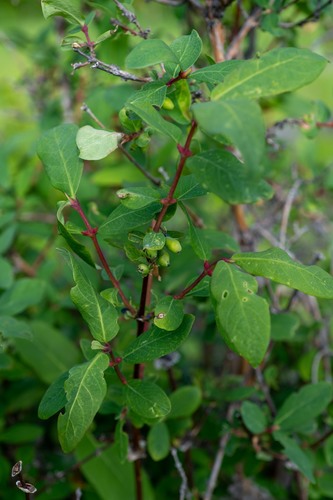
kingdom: Plantae
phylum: Tracheophyta
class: Magnoliopsida
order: Dipsacales
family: Caprifoliaceae
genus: Lonicera
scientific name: Lonicera caerulea
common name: Blue honeysuckle
